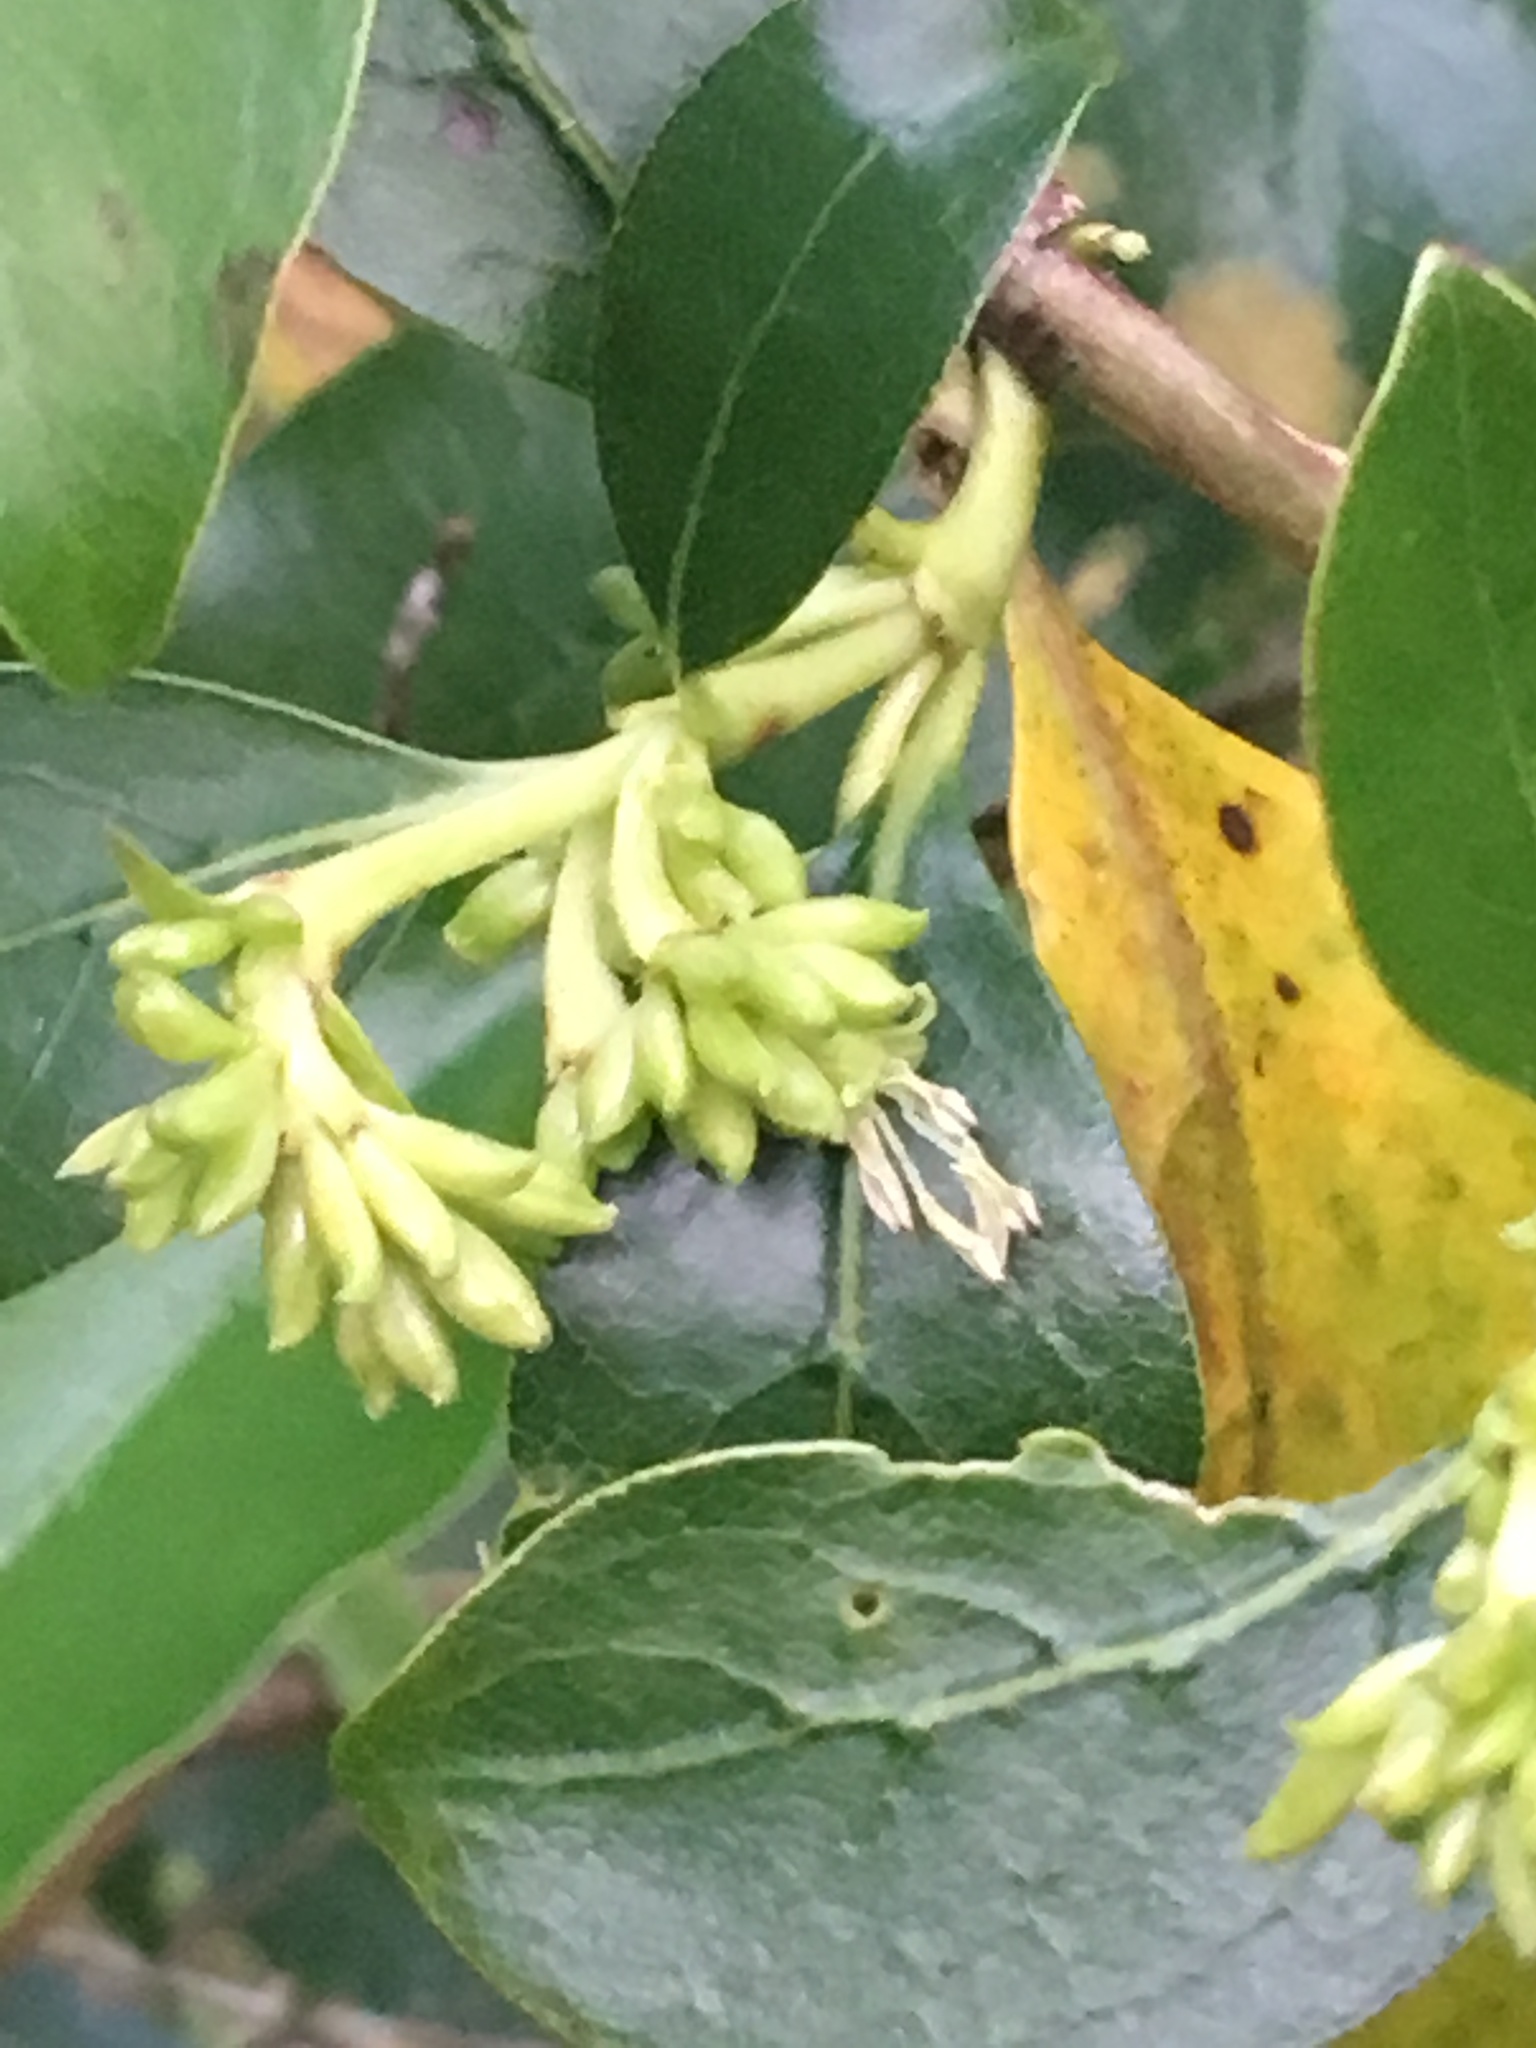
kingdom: Plantae
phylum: Tracheophyta
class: Magnoliopsida
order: Gentianales
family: Rubiaceae
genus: Coprosma
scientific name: Coprosma robusta
